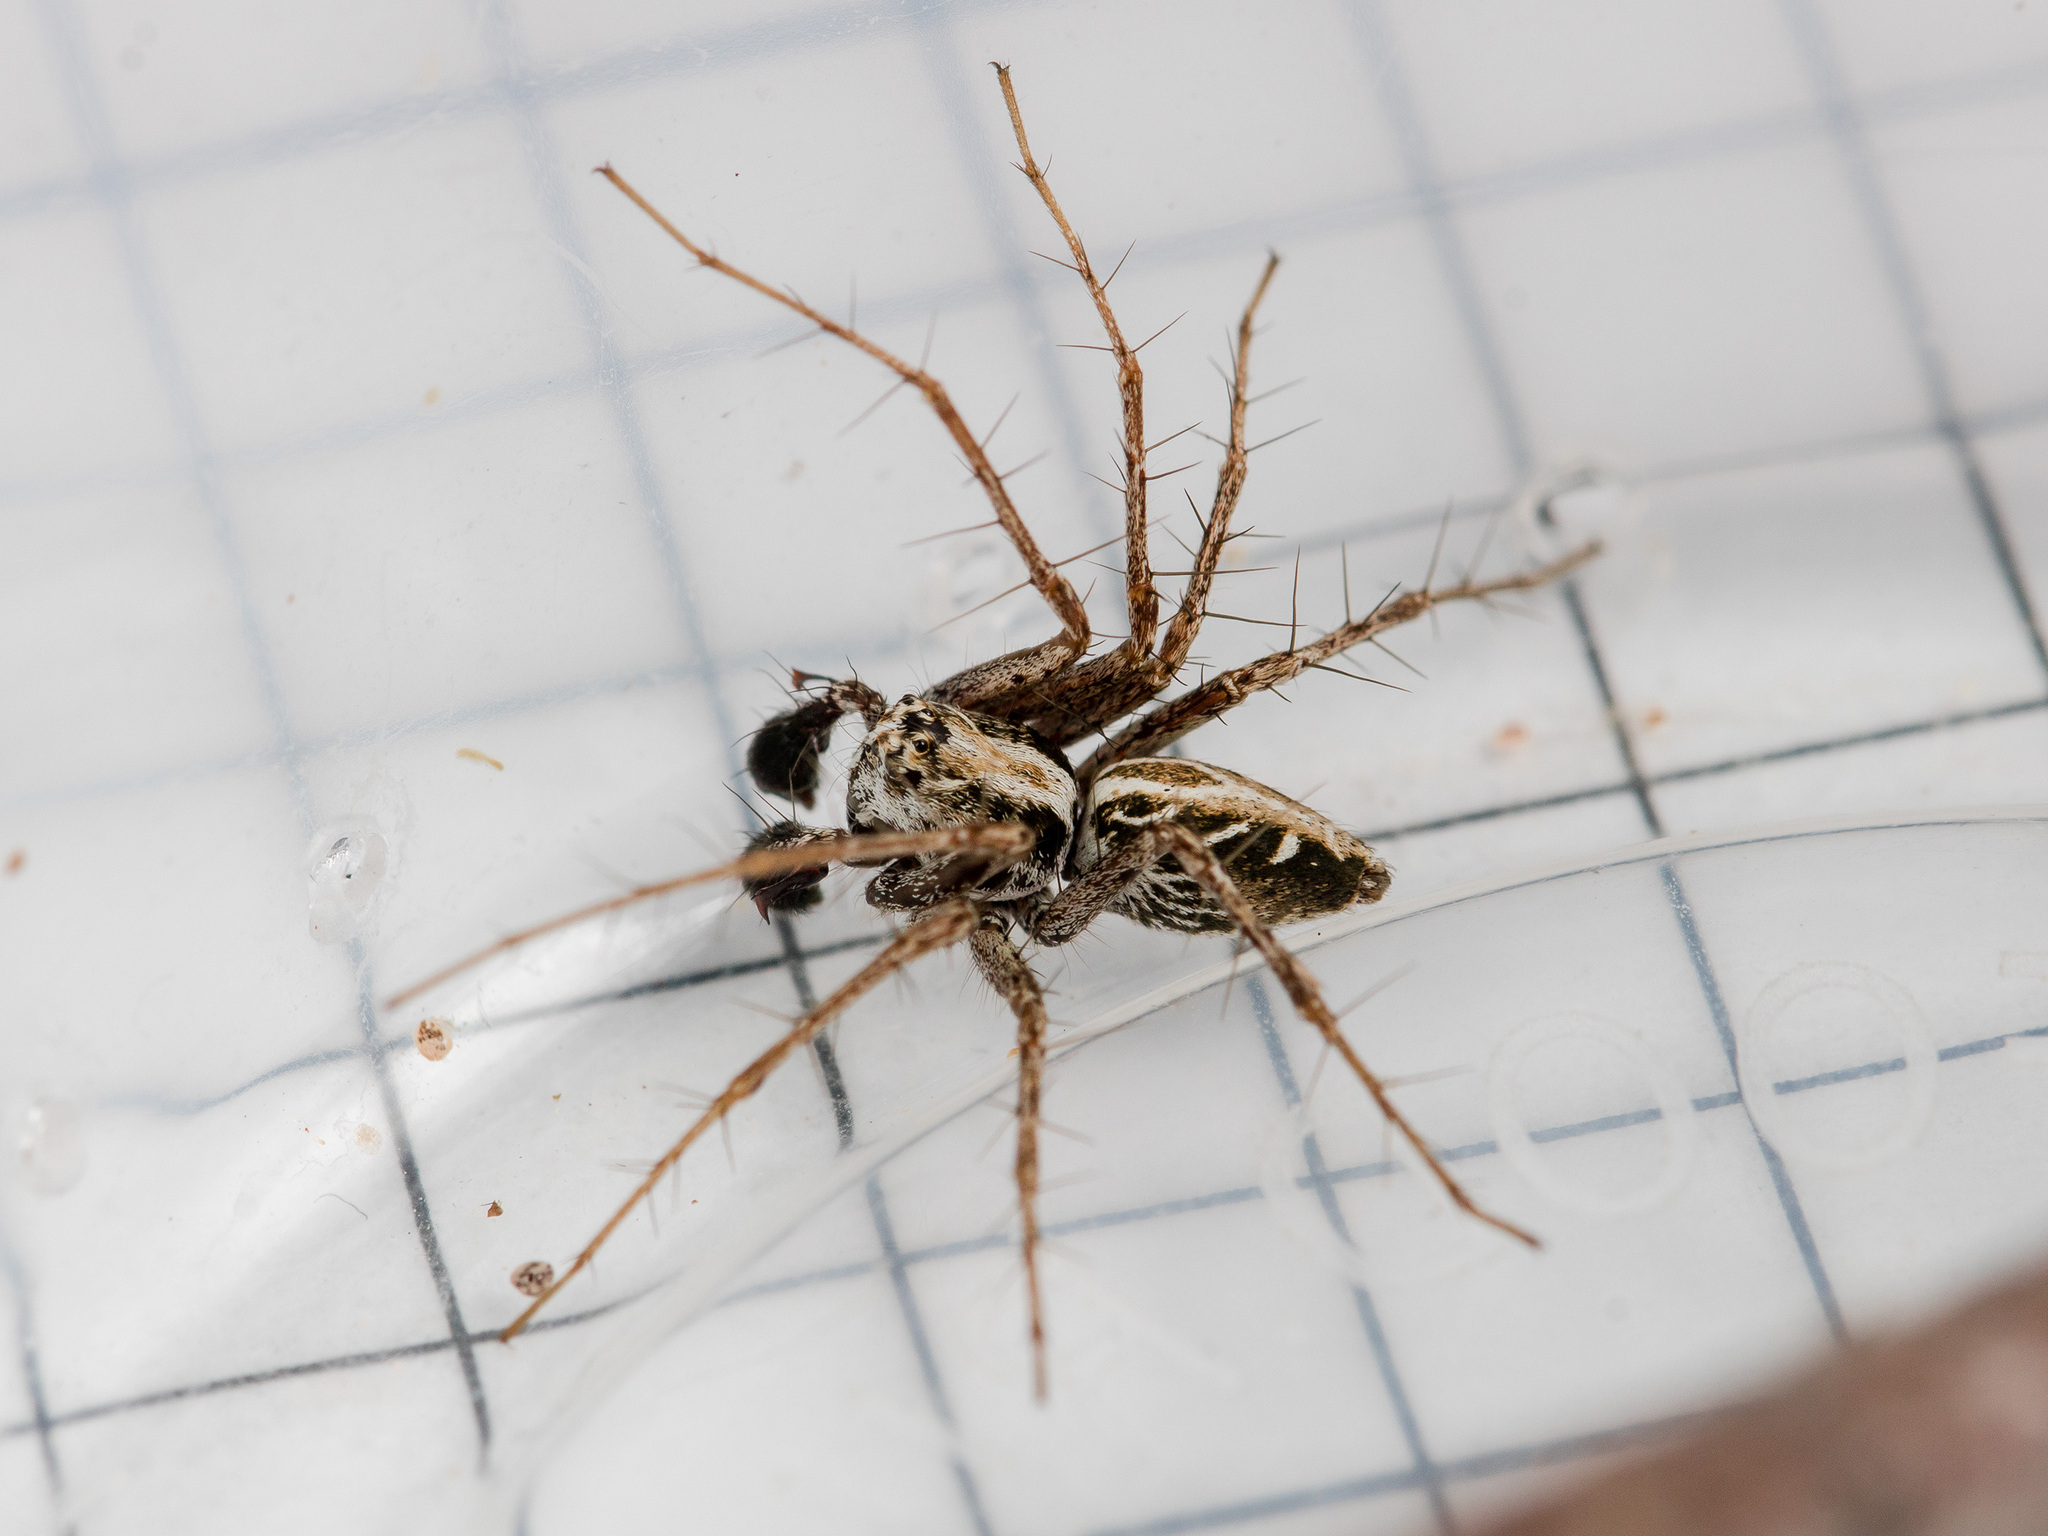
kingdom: Animalia
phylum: Arthropoda
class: Arachnida
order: Araneae
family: Oxyopidae
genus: Oxyopes
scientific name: Oxyopes nenilini
